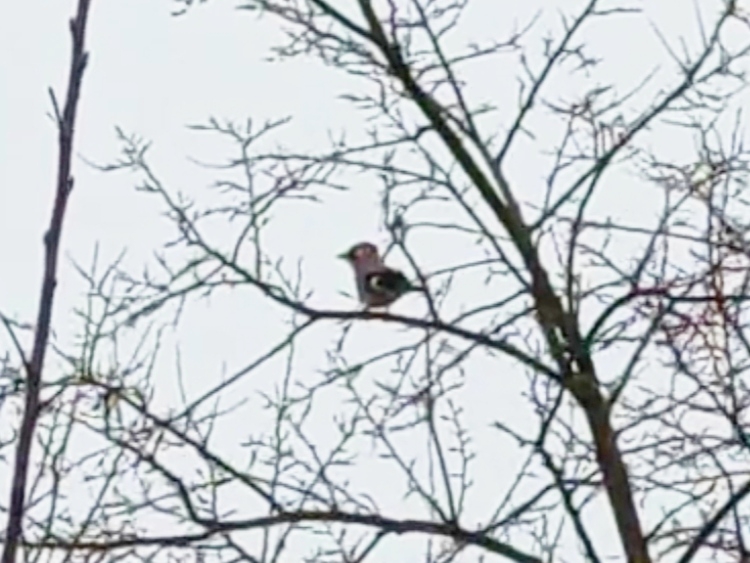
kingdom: Animalia
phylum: Chordata
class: Aves
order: Passeriformes
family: Corvidae
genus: Garrulus
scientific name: Garrulus glandarius
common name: Eurasian jay
